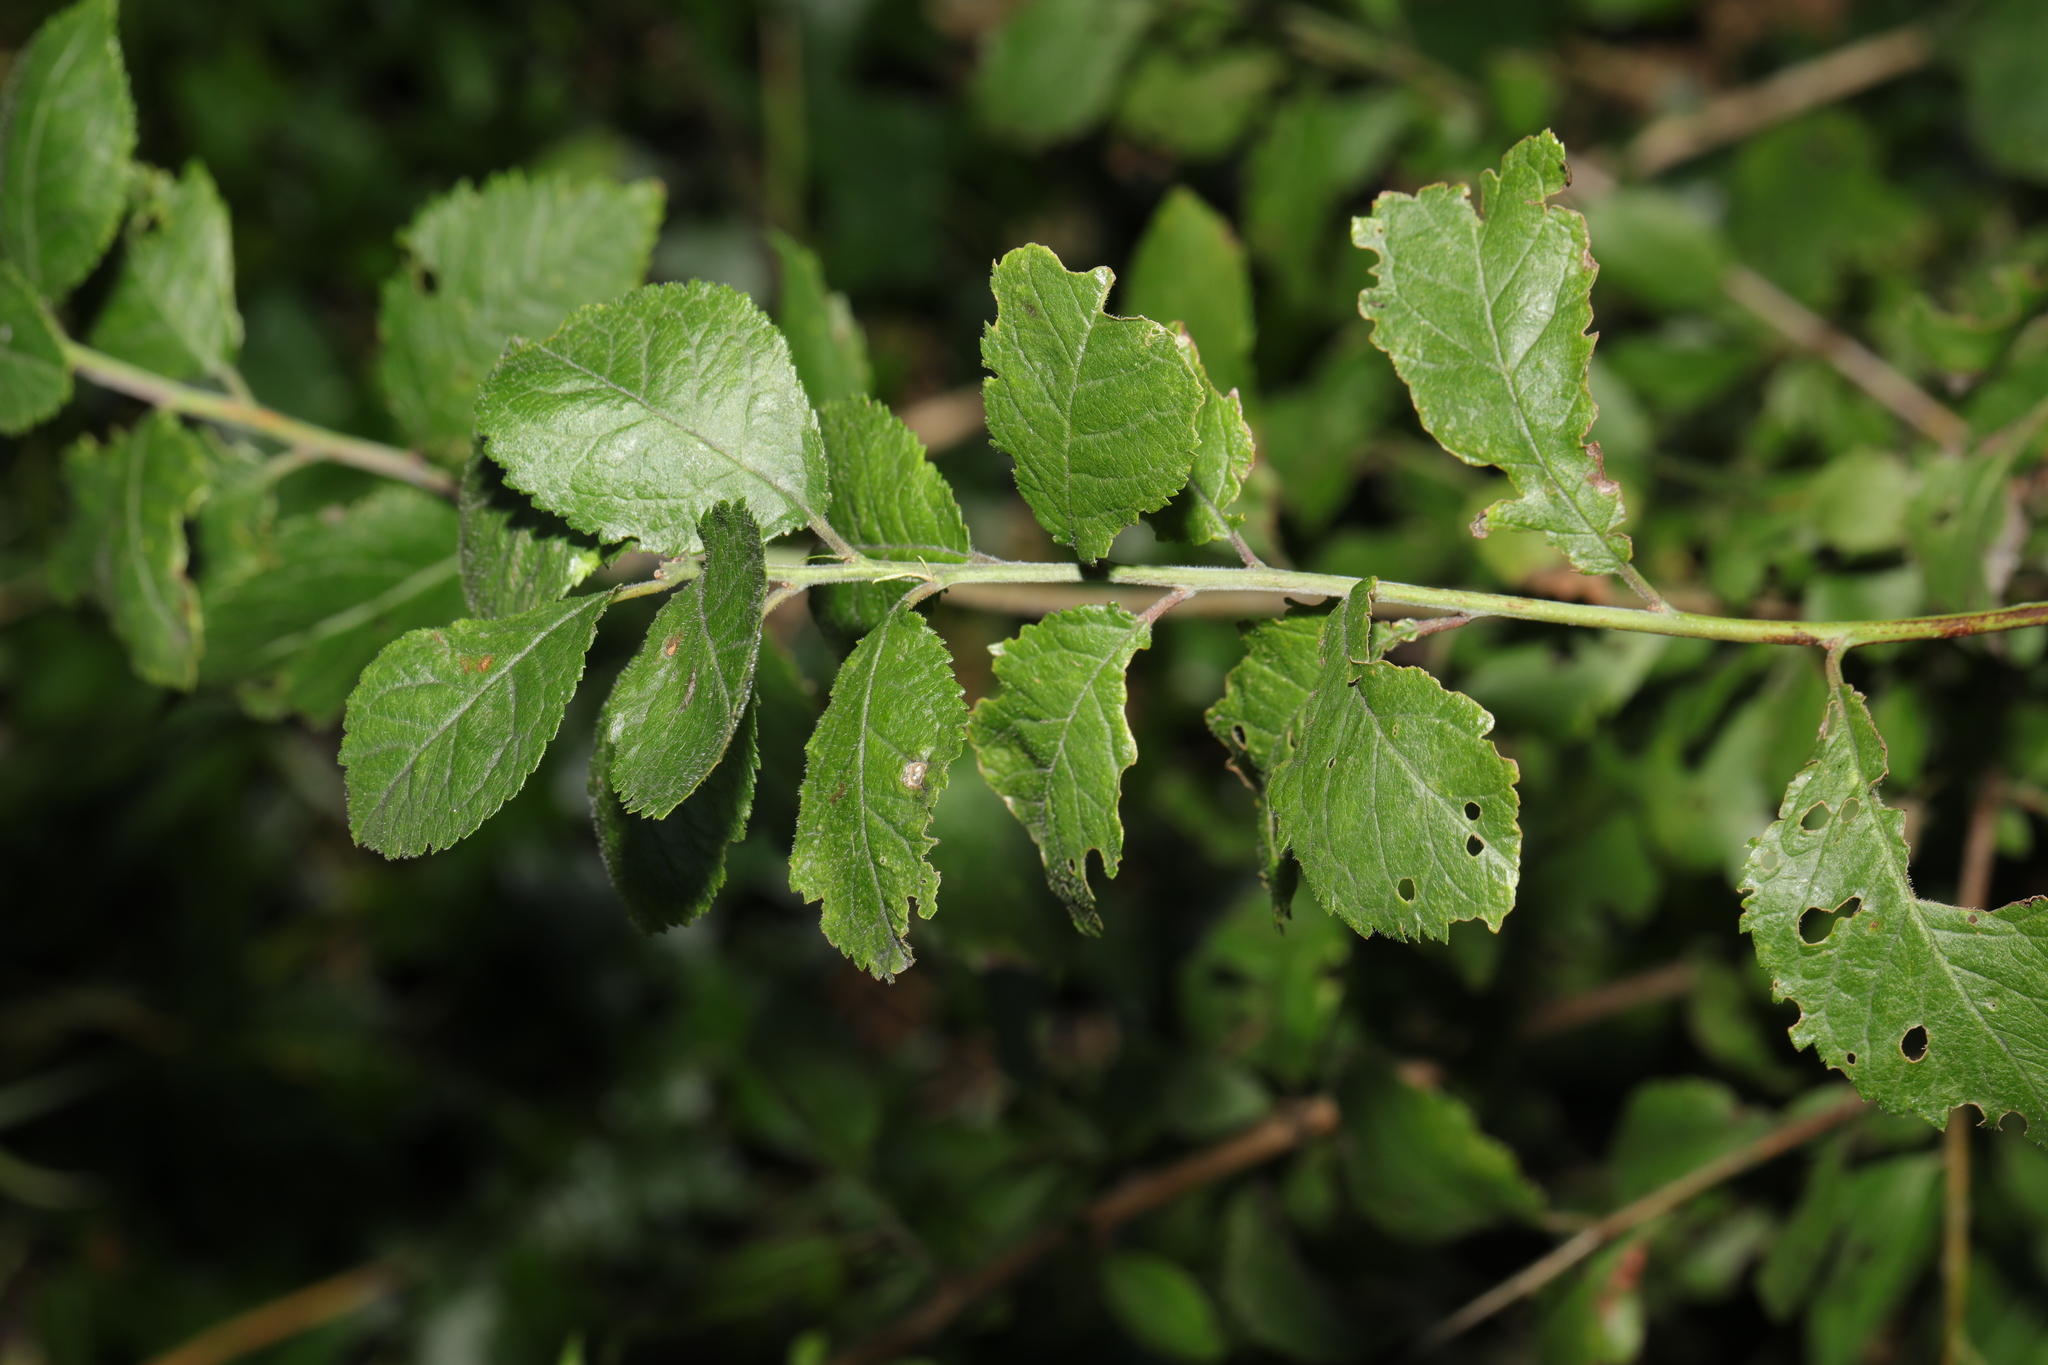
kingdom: Plantae
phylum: Tracheophyta
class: Magnoliopsida
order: Rosales
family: Rosaceae
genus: Prunus
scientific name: Prunus spinosa
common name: Blackthorn
